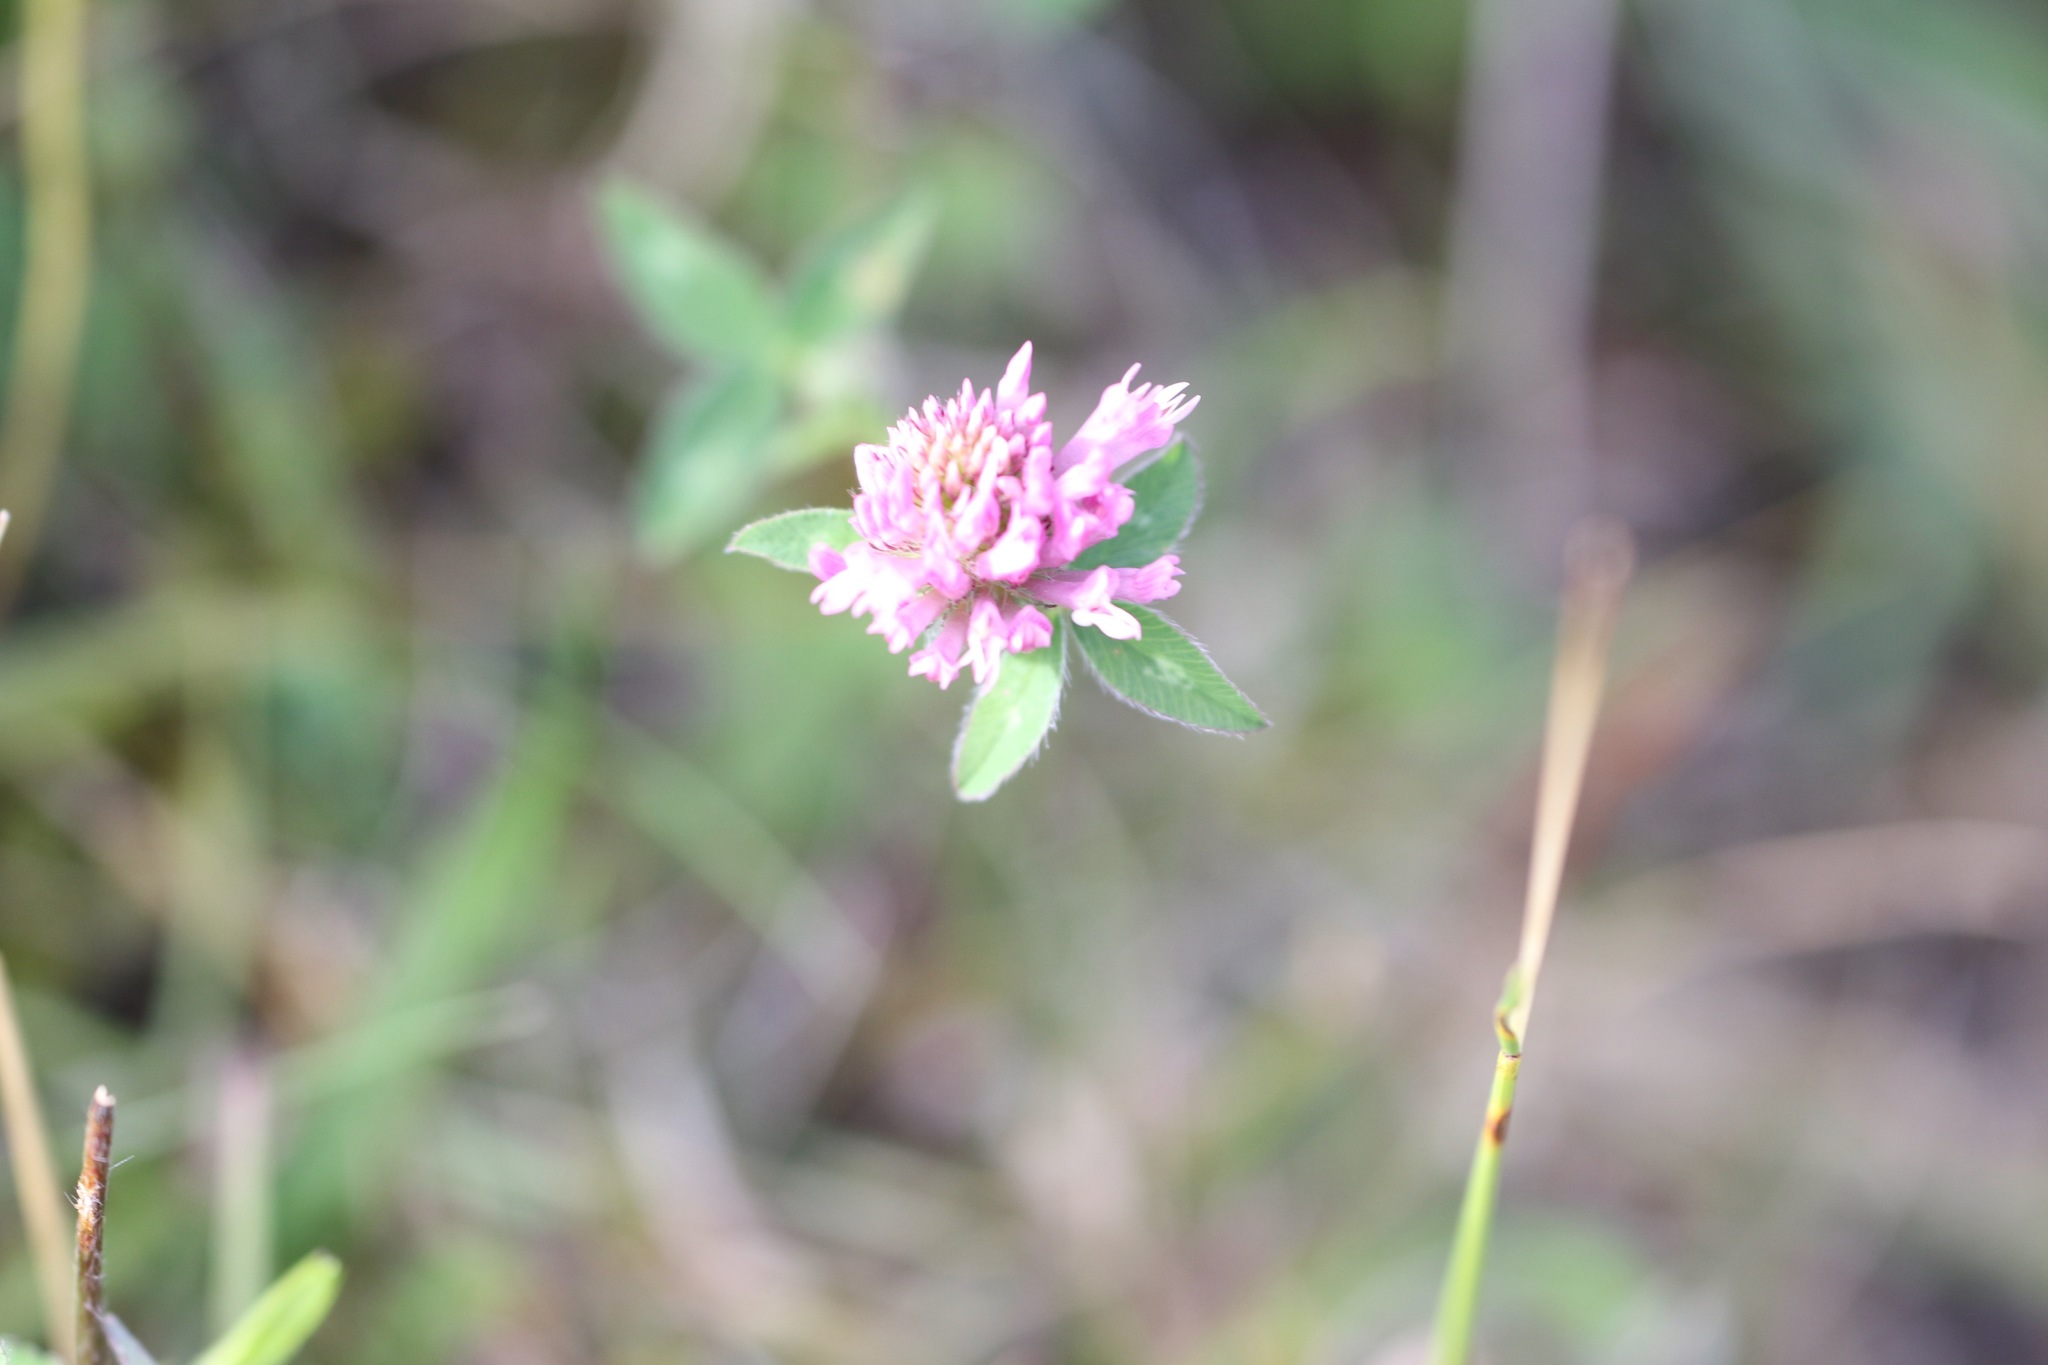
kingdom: Plantae
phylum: Tracheophyta
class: Magnoliopsida
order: Fabales
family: Fabaceae
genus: Trifolium
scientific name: Trifolium pratense
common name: Red clover
